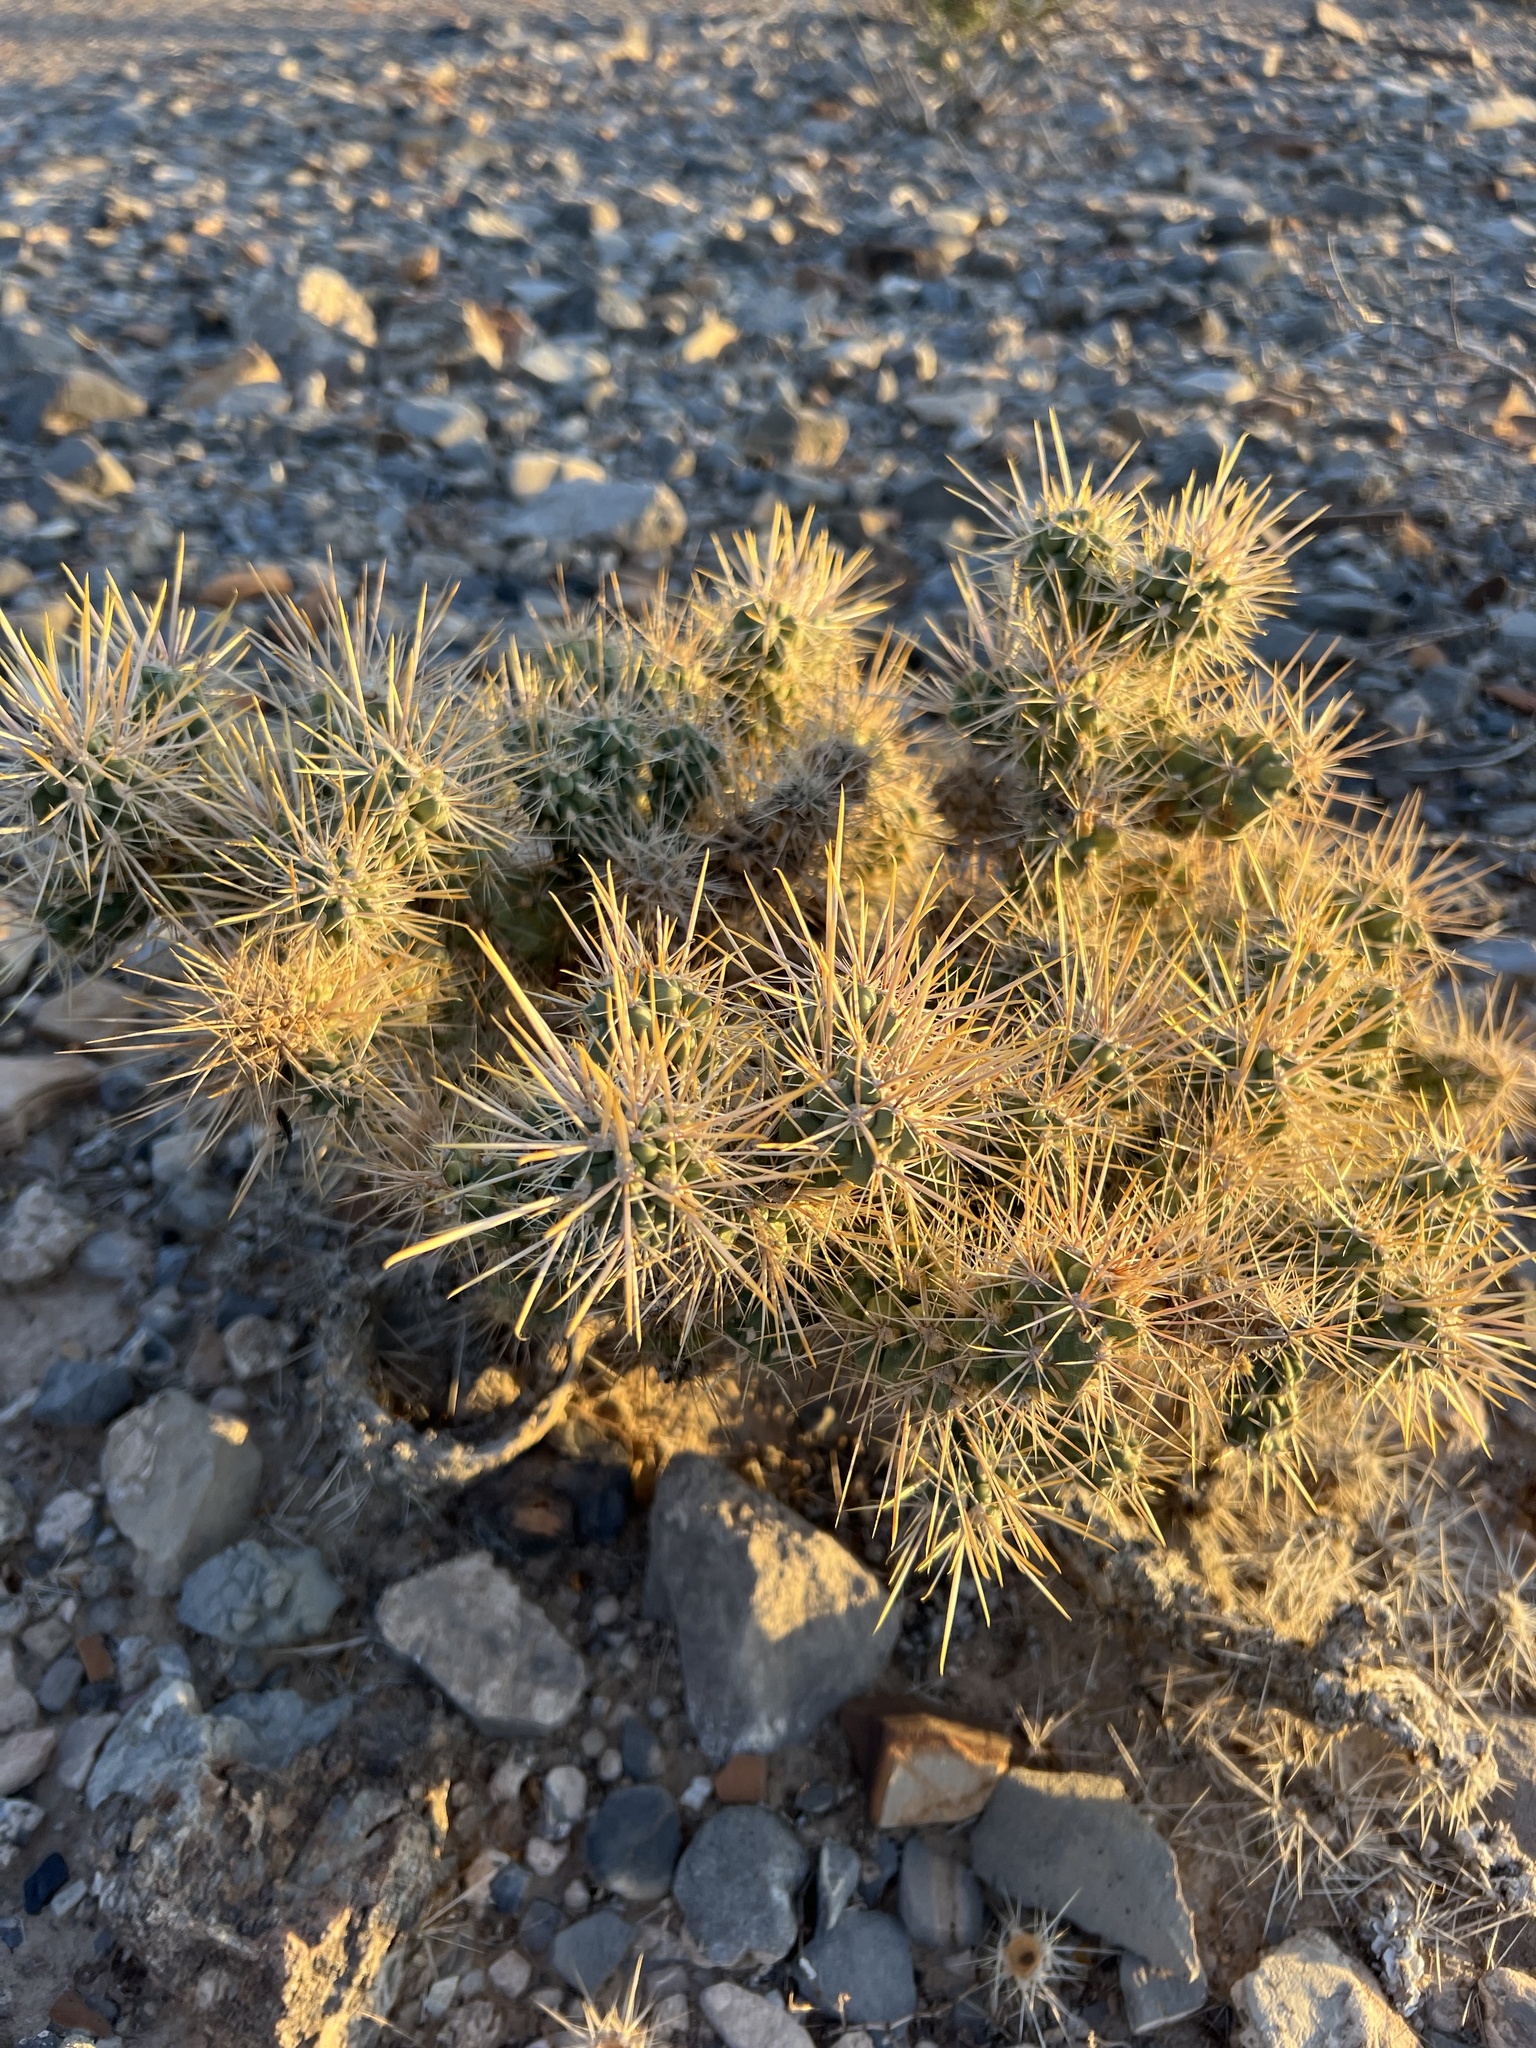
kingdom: Plantae
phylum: Tracheophyta
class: Magnoliopsida
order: Caryophyllales
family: Cactaceae
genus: Cylindropuntia
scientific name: Cylindropuntia echinocarpa
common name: Ground cholla
